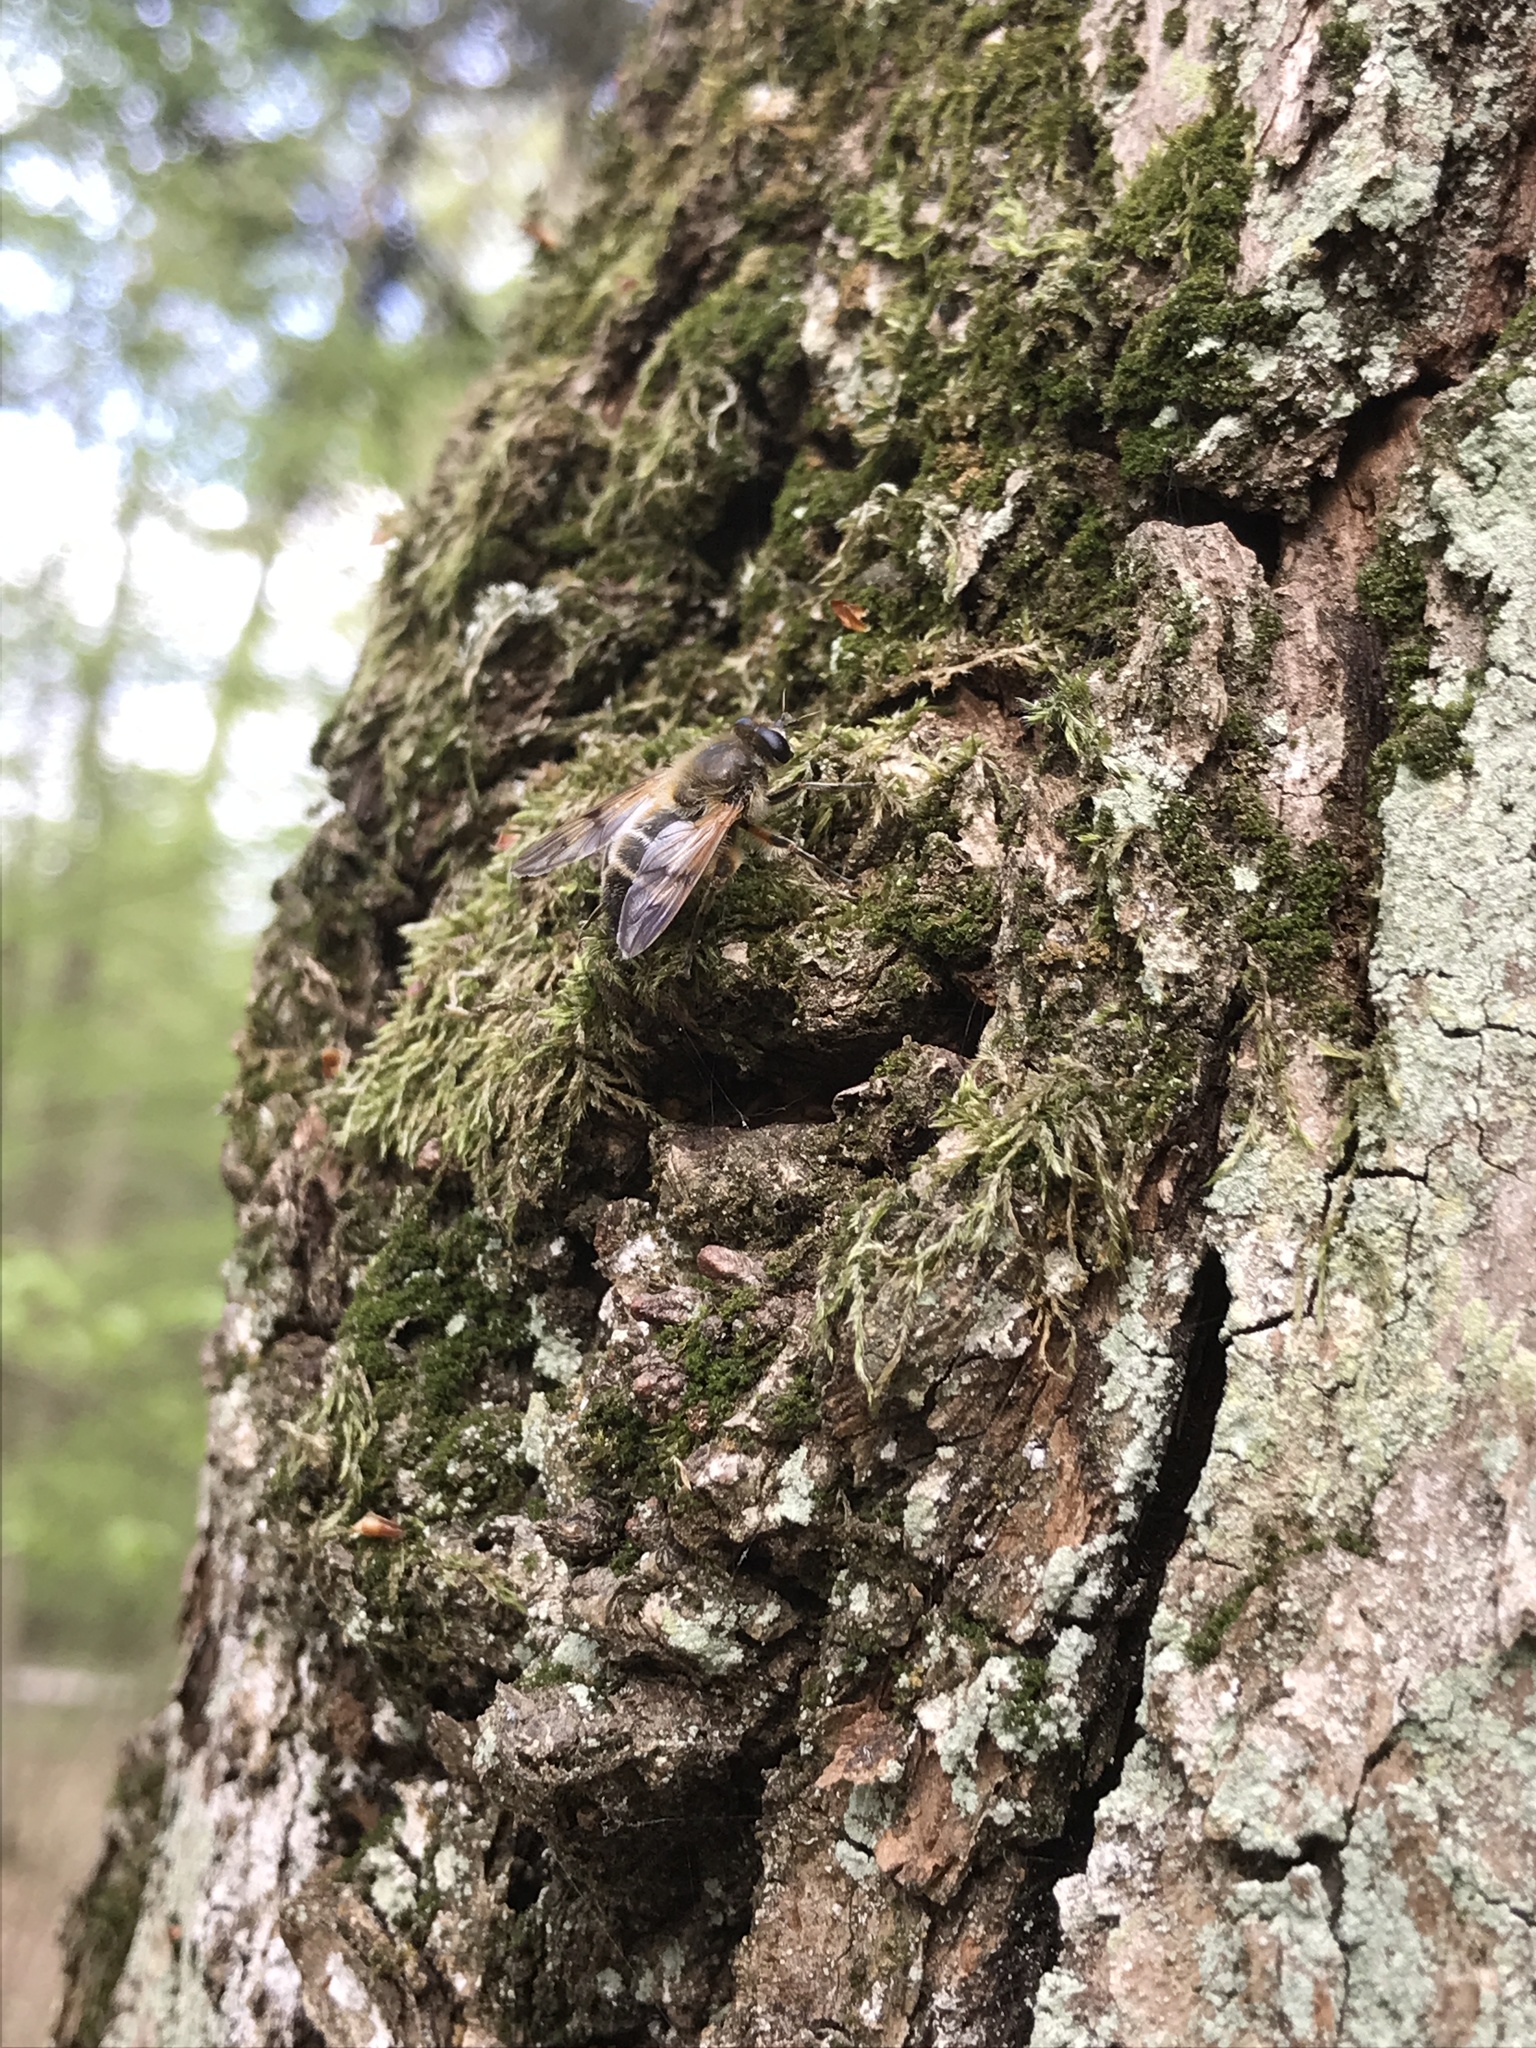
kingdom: Animalia
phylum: Arthropoda
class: Insecta
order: Diptera
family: Syrphidae
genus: Brachypalpus
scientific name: Brachypalpus valgus
